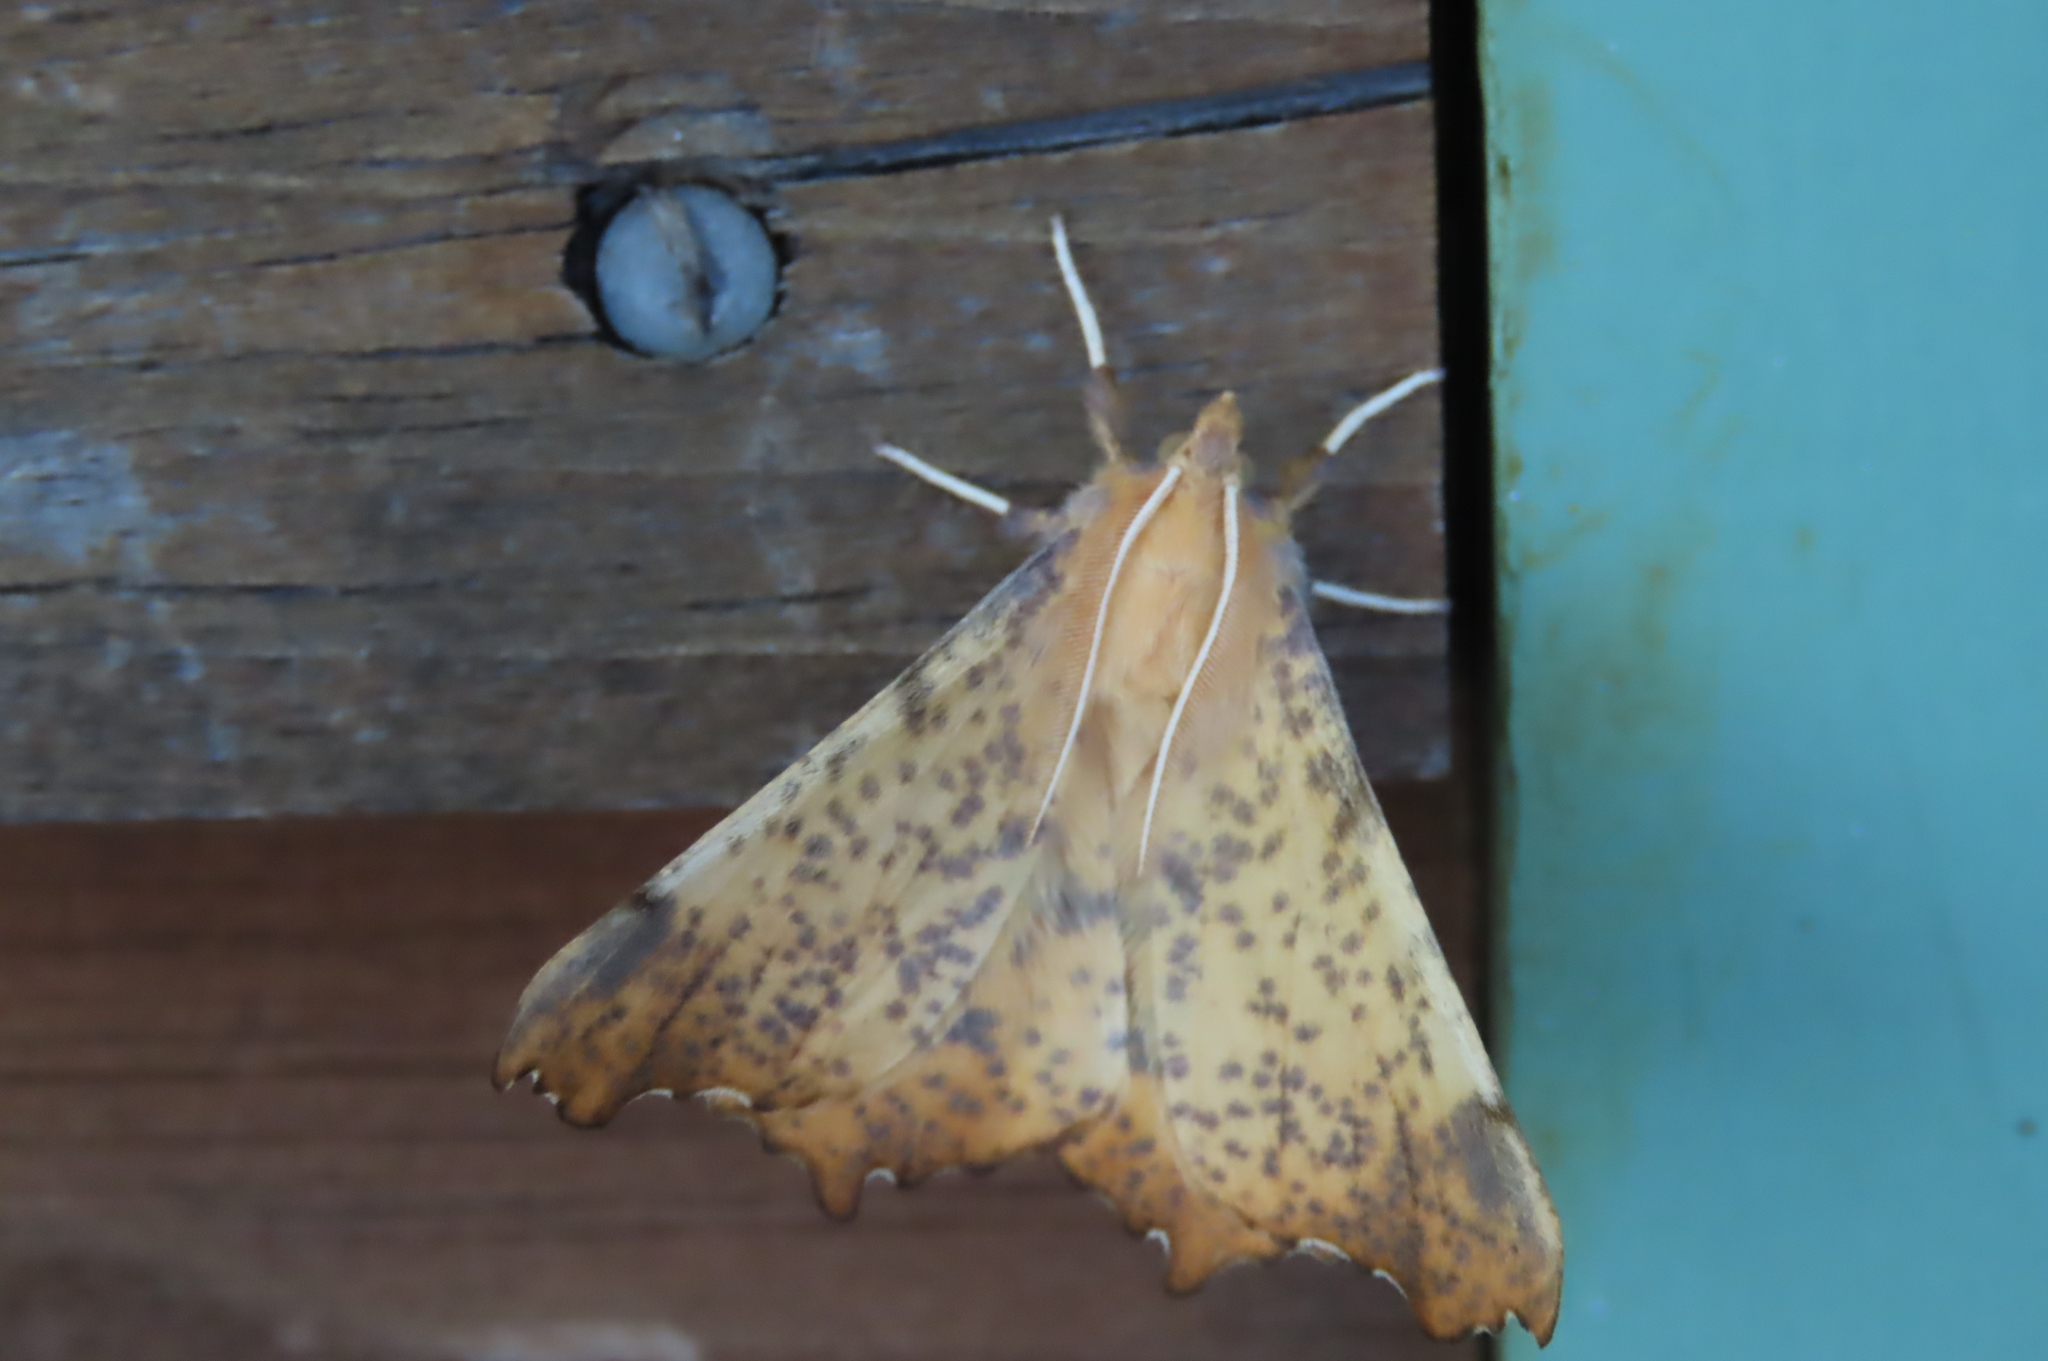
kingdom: Animalia
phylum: Arthropoda
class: Insecta
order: Lepidoptera
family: Geometridae
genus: Ennomos
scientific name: Ennomos magnaria
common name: Maple spanworm
